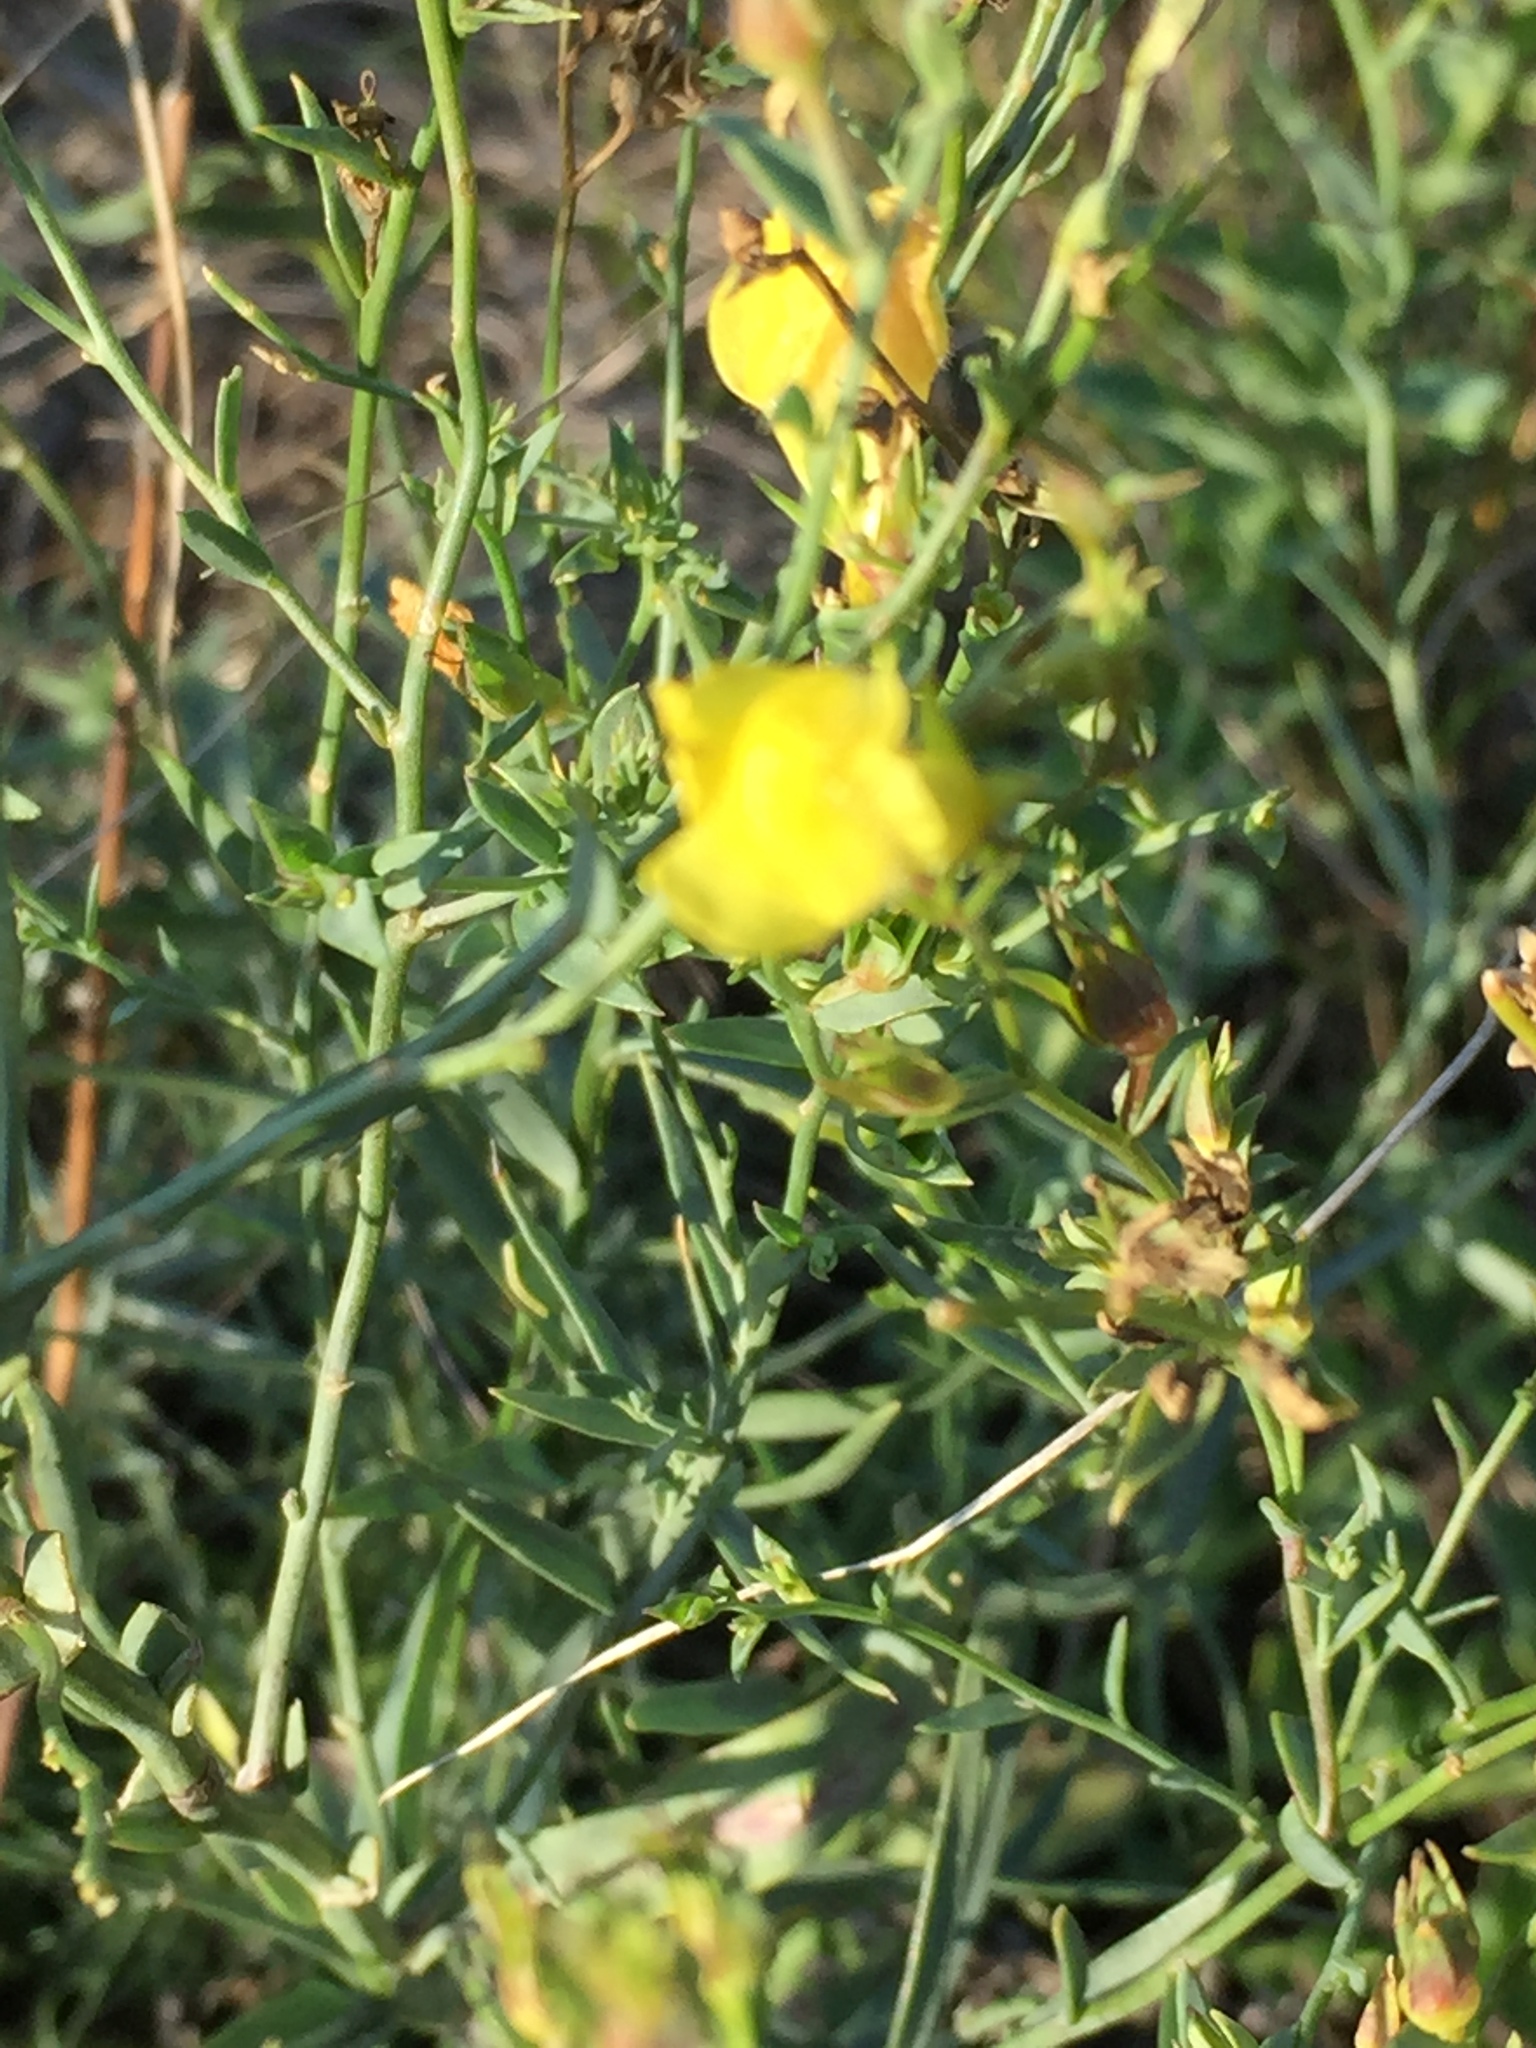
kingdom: Plantae
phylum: Tracheophyta
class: Magnoliopsida
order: Lamiales
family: Plantaginaceae
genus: Linaria
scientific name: Linaria genistifolia
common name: Broomleaf toadflax
